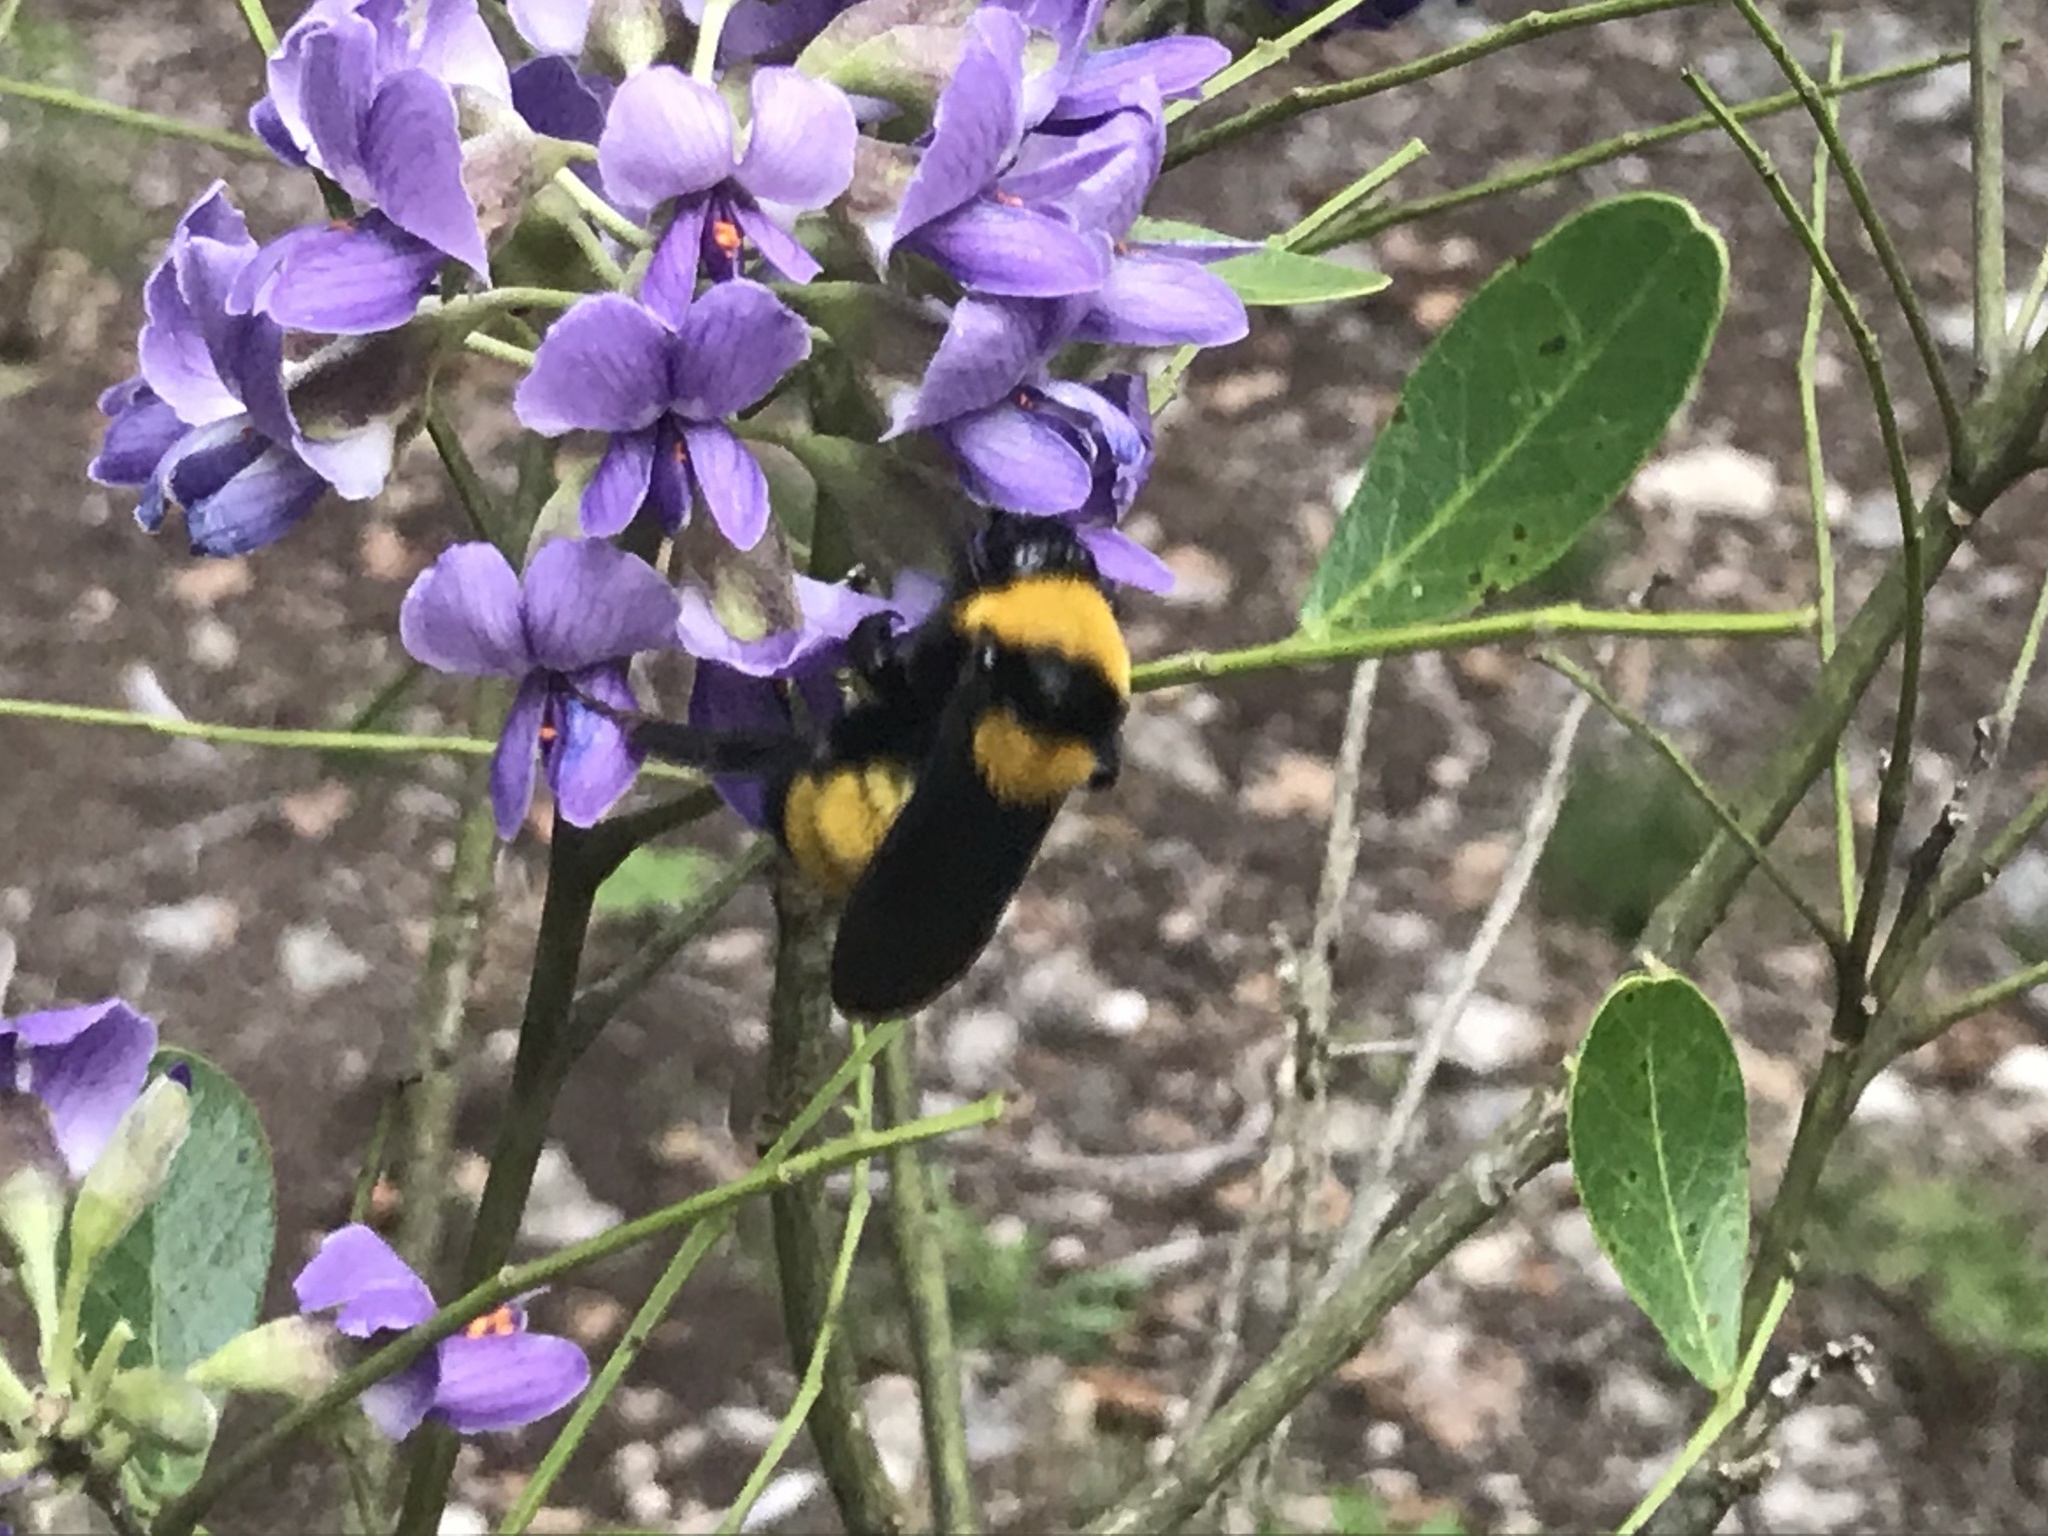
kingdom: Animalia
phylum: Arthropoda
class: Insecta
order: Hymenoptera
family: Apidae
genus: Bombus
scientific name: Bombus sonorus
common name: Sonoran bumble bee
